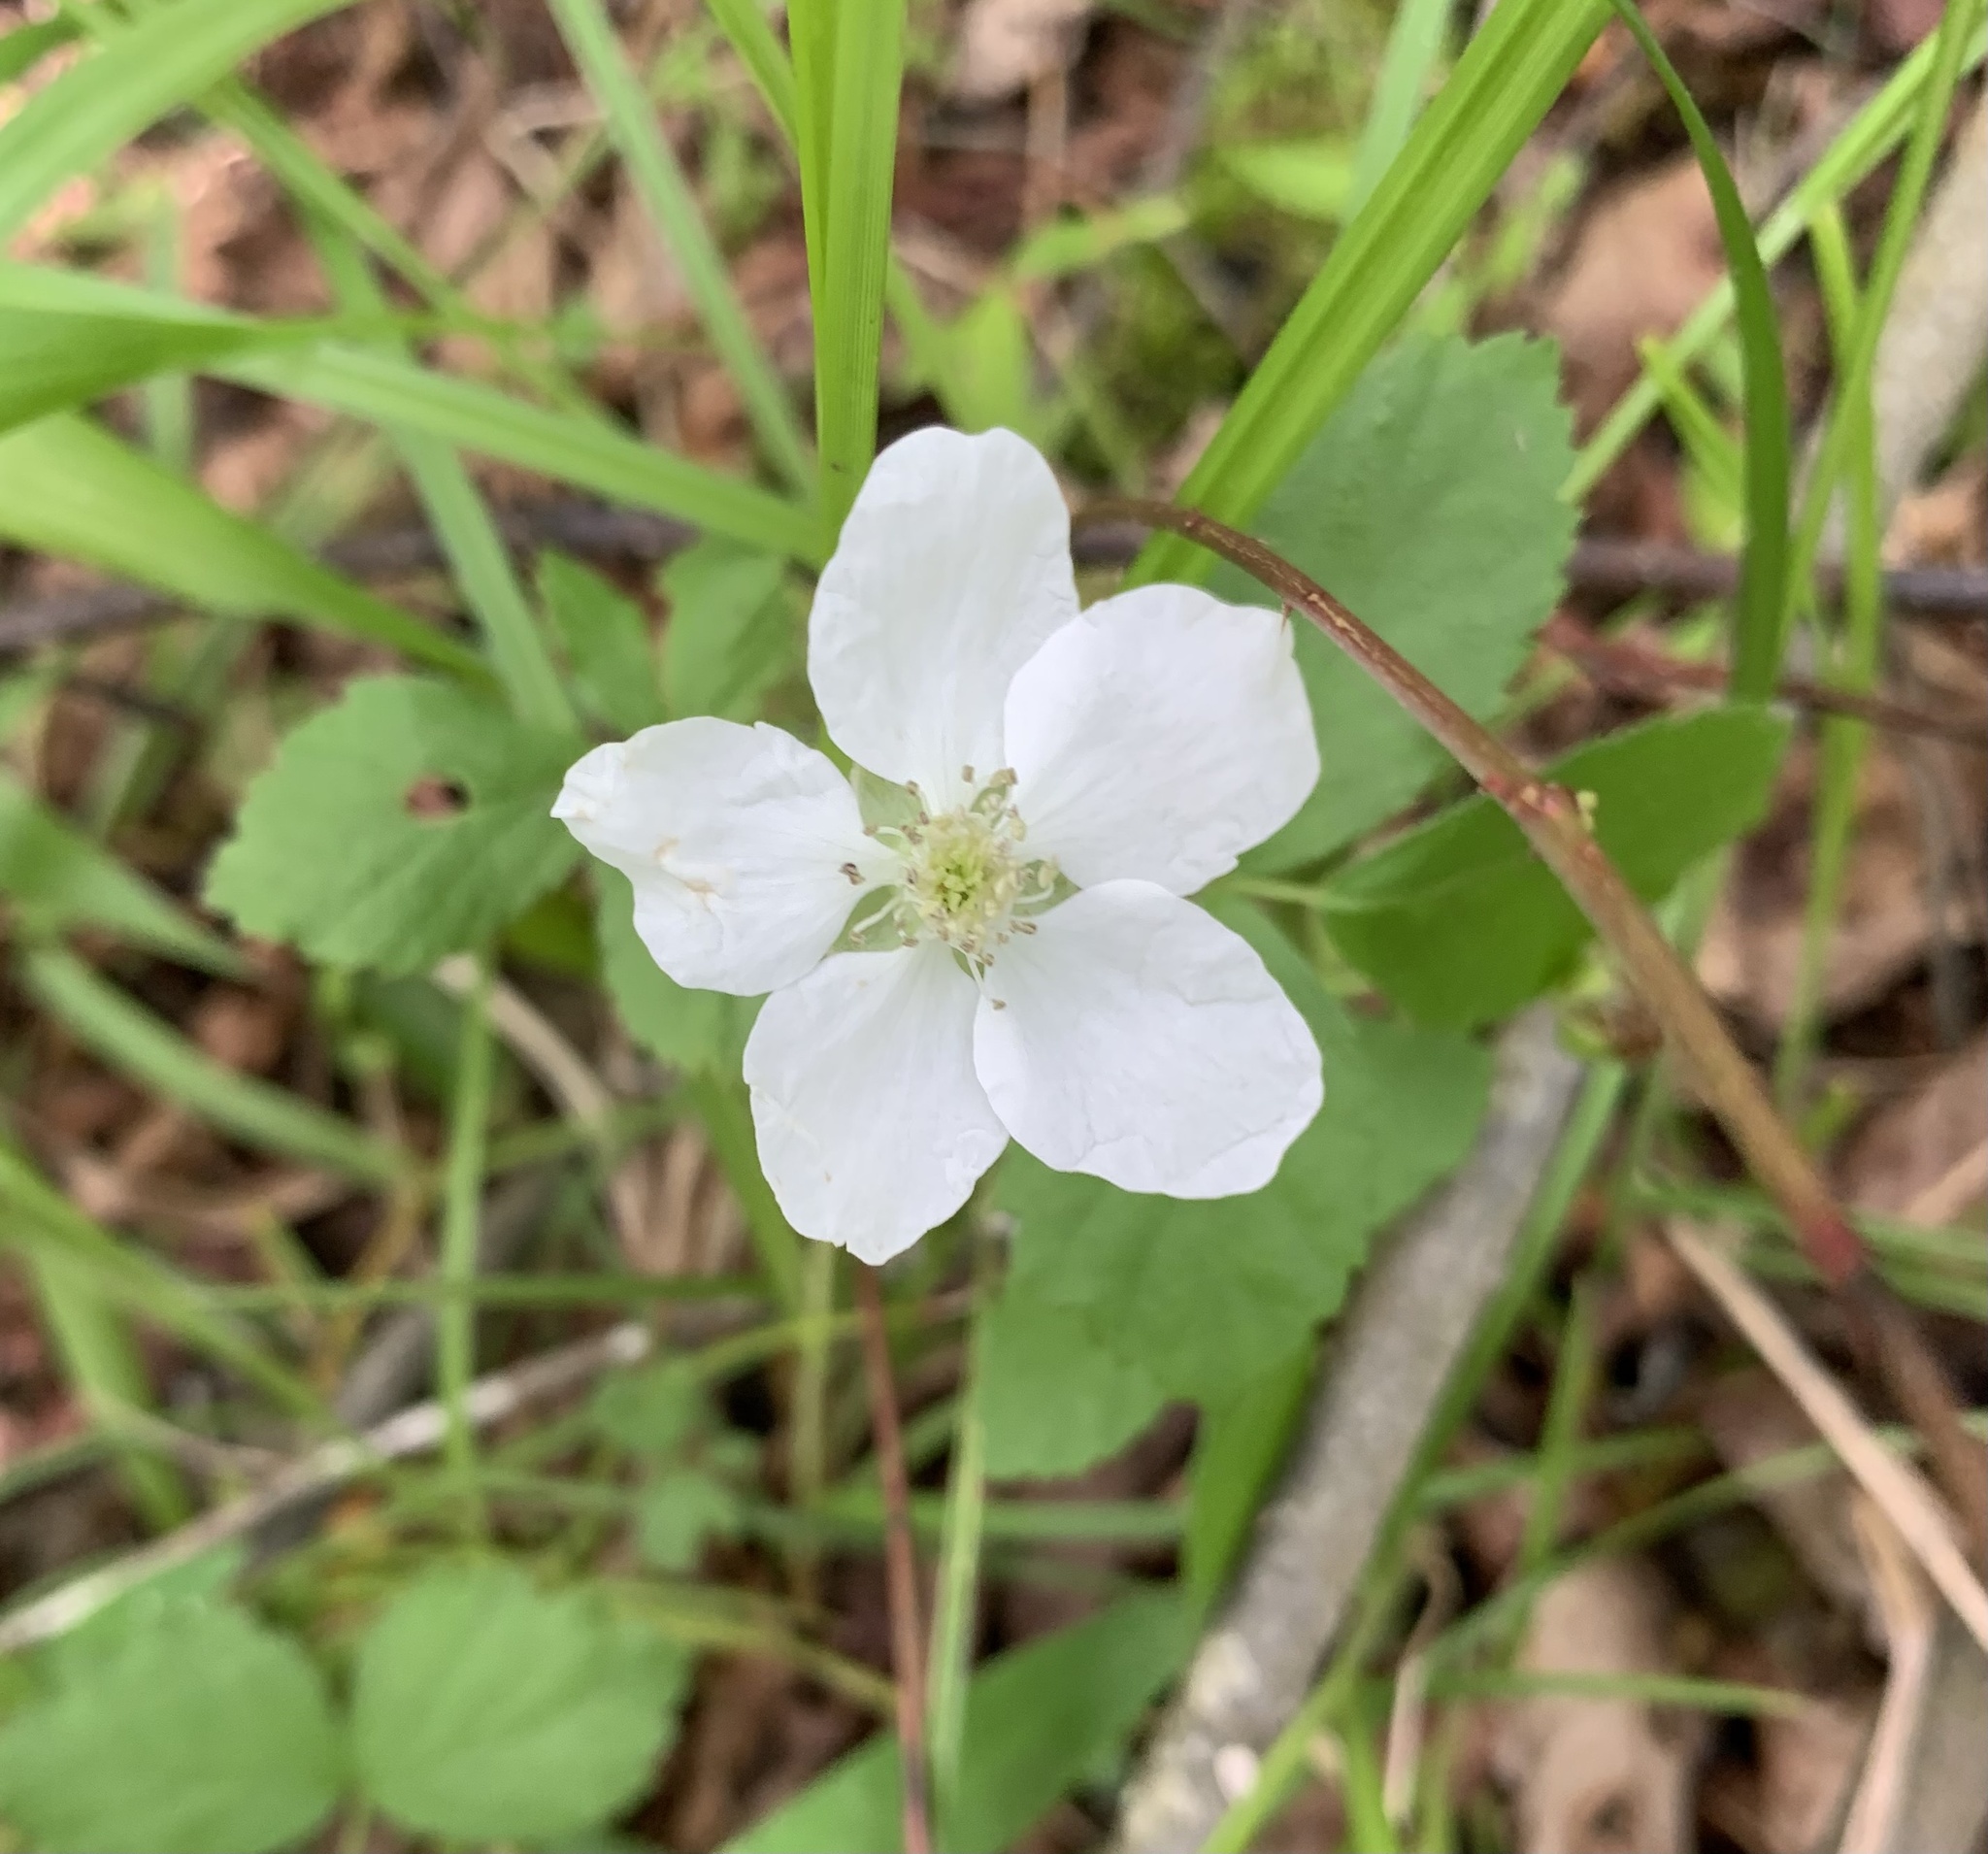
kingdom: Plantae
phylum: Tracheophyta
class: Magnoliopsida
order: Rosales
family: Rosaceae
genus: Rubus
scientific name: Rubus flagellaris
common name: American dewberry
